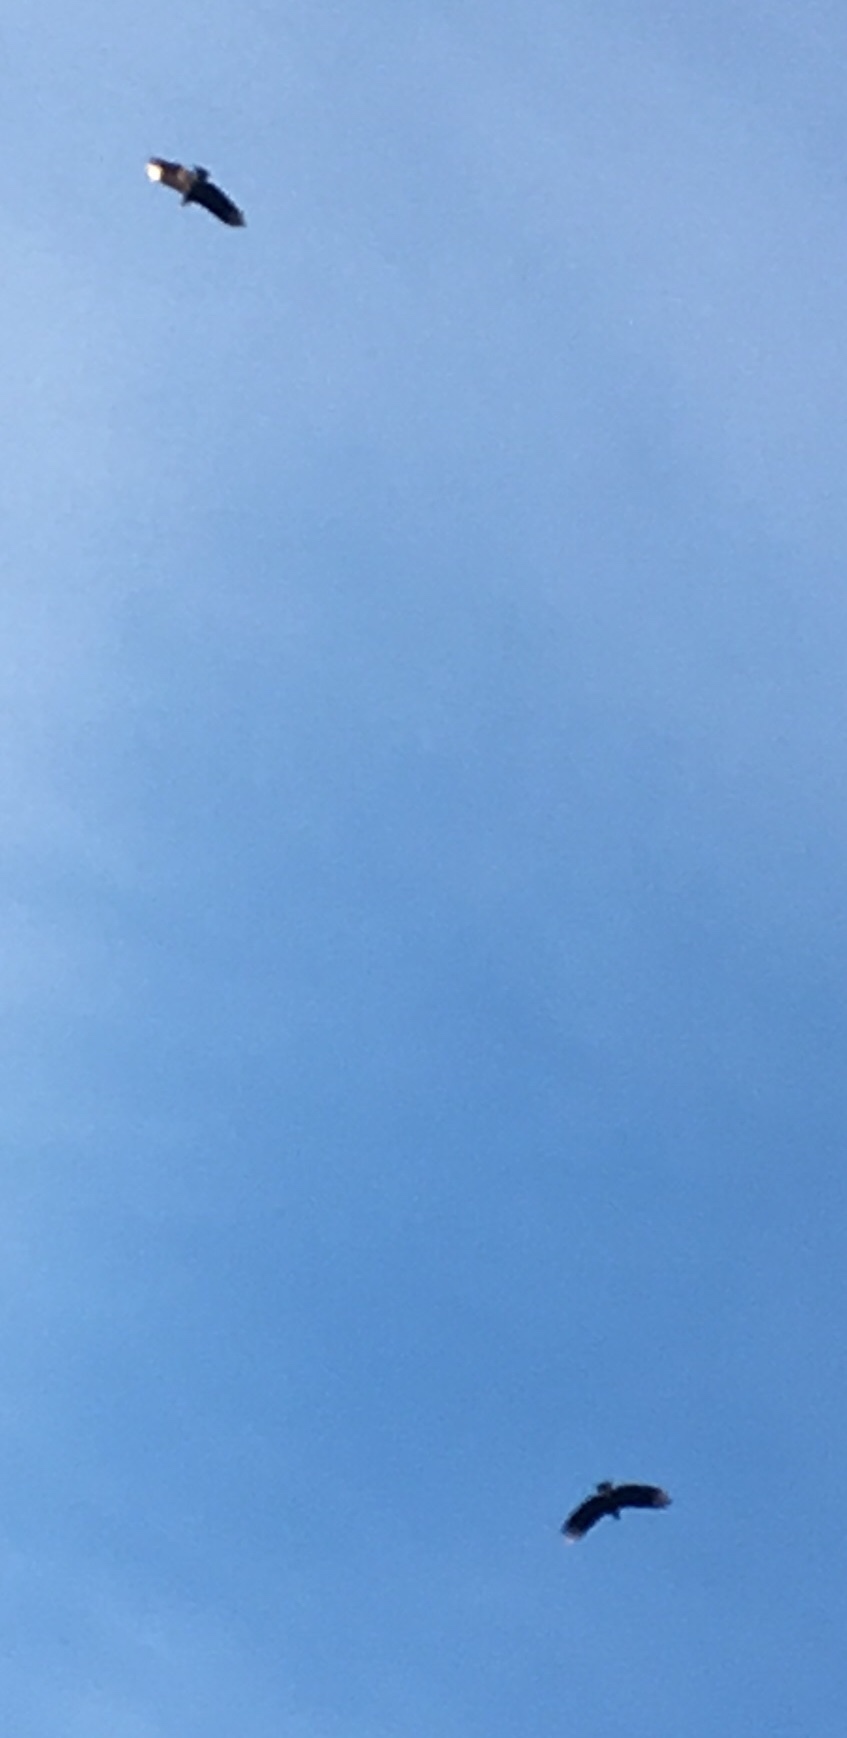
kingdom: Animalia
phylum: Chordata
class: Aves
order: Accipitriformes
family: Cathartidae
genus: Coragyps
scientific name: Coragyps atratus
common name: Black vulture
